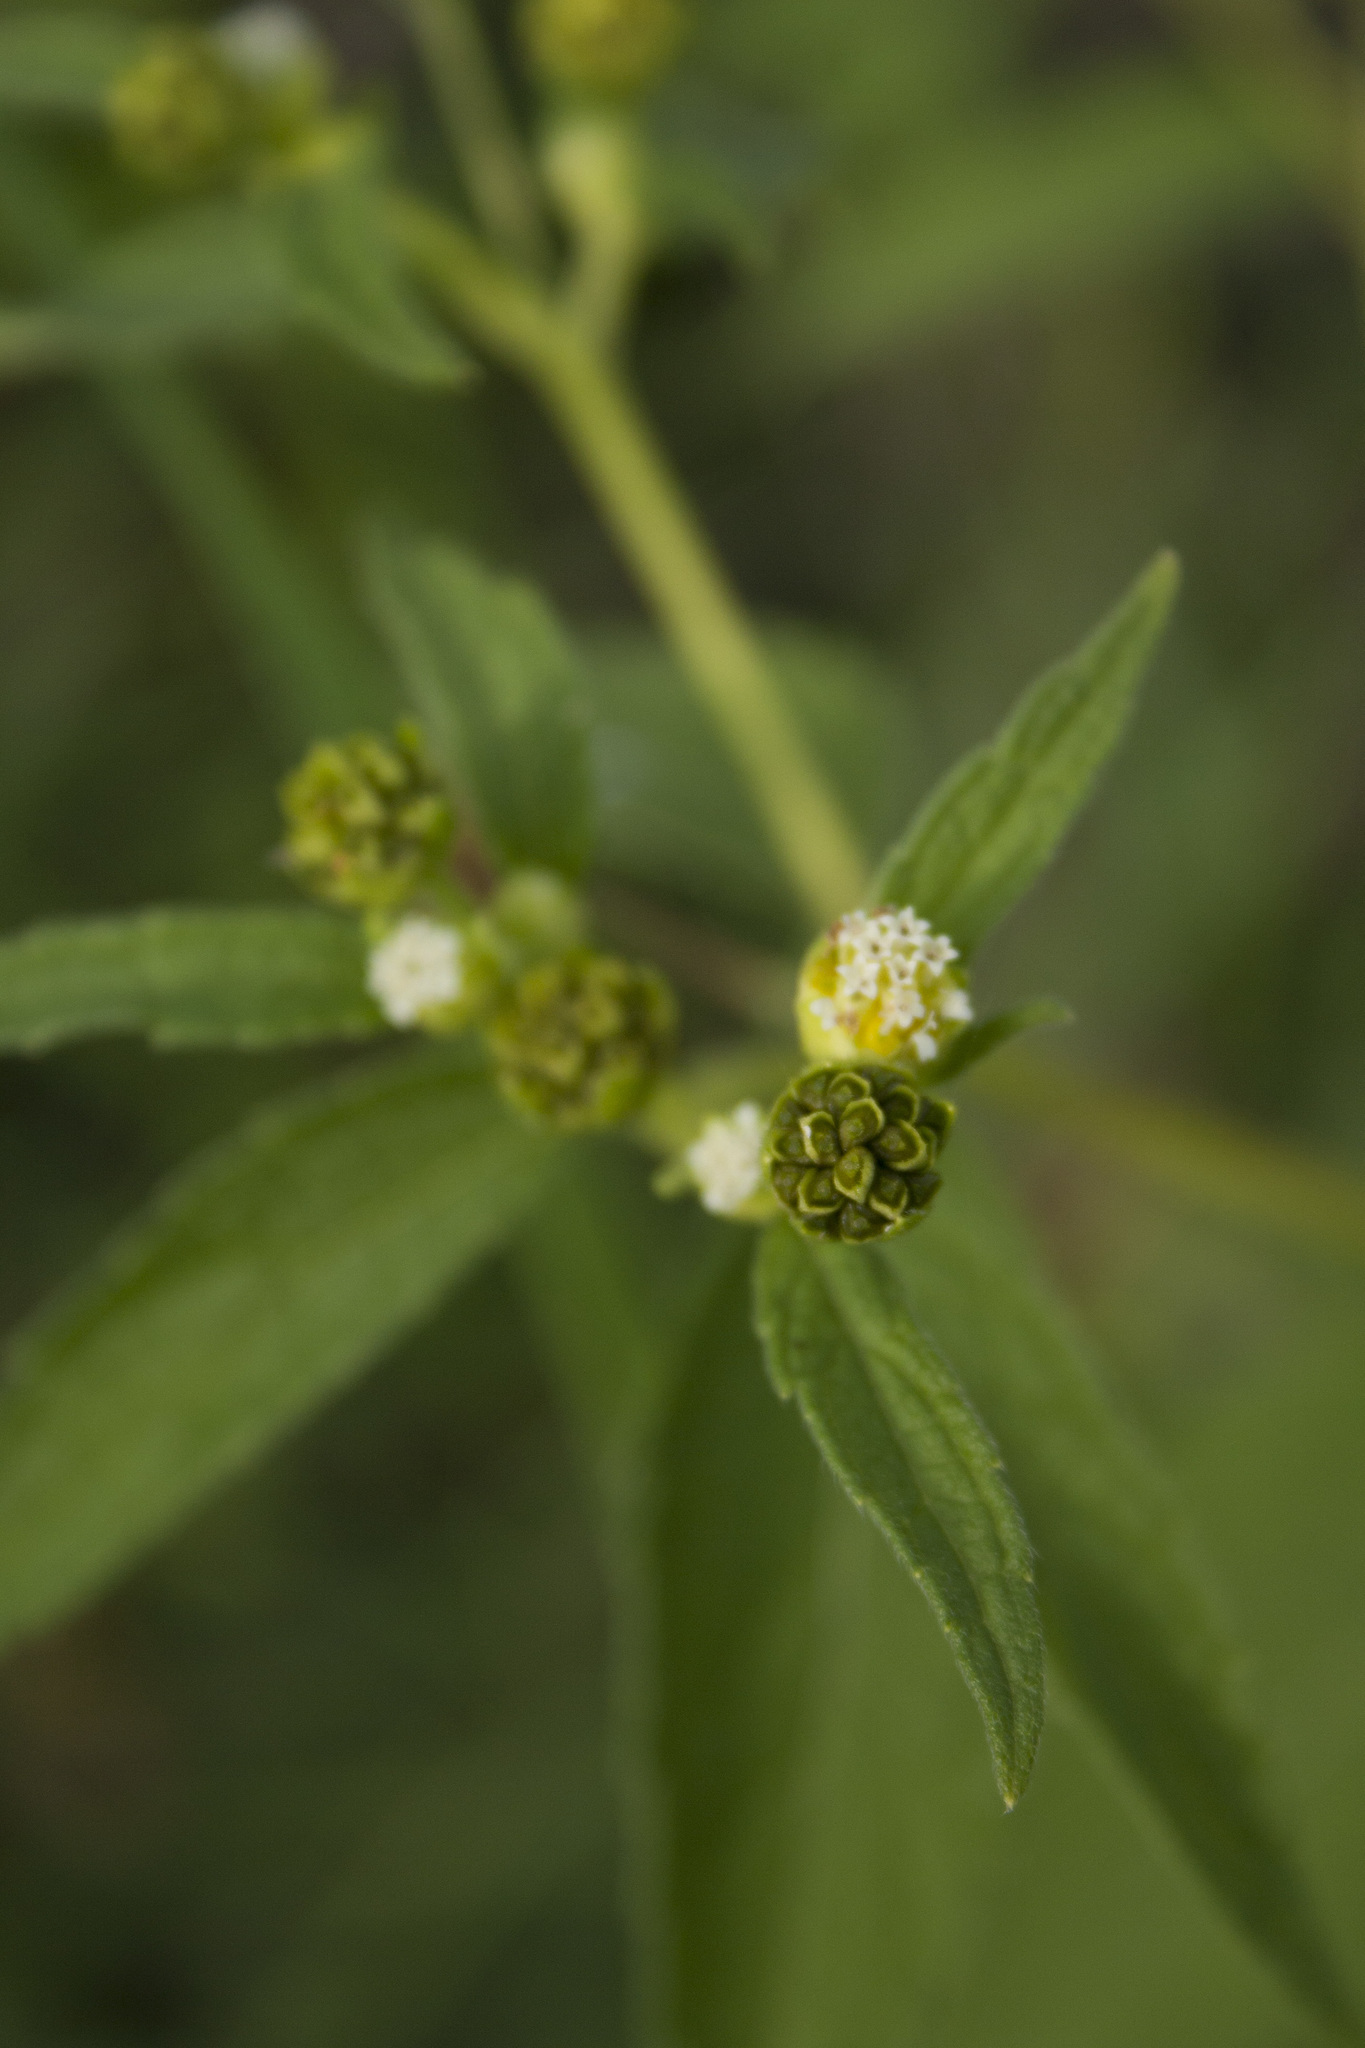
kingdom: Plantae
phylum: Tracheophyta
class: Magnoliopsida
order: Asterales
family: Asteraceae
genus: Blainvillea
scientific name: Blainvillea acmella
